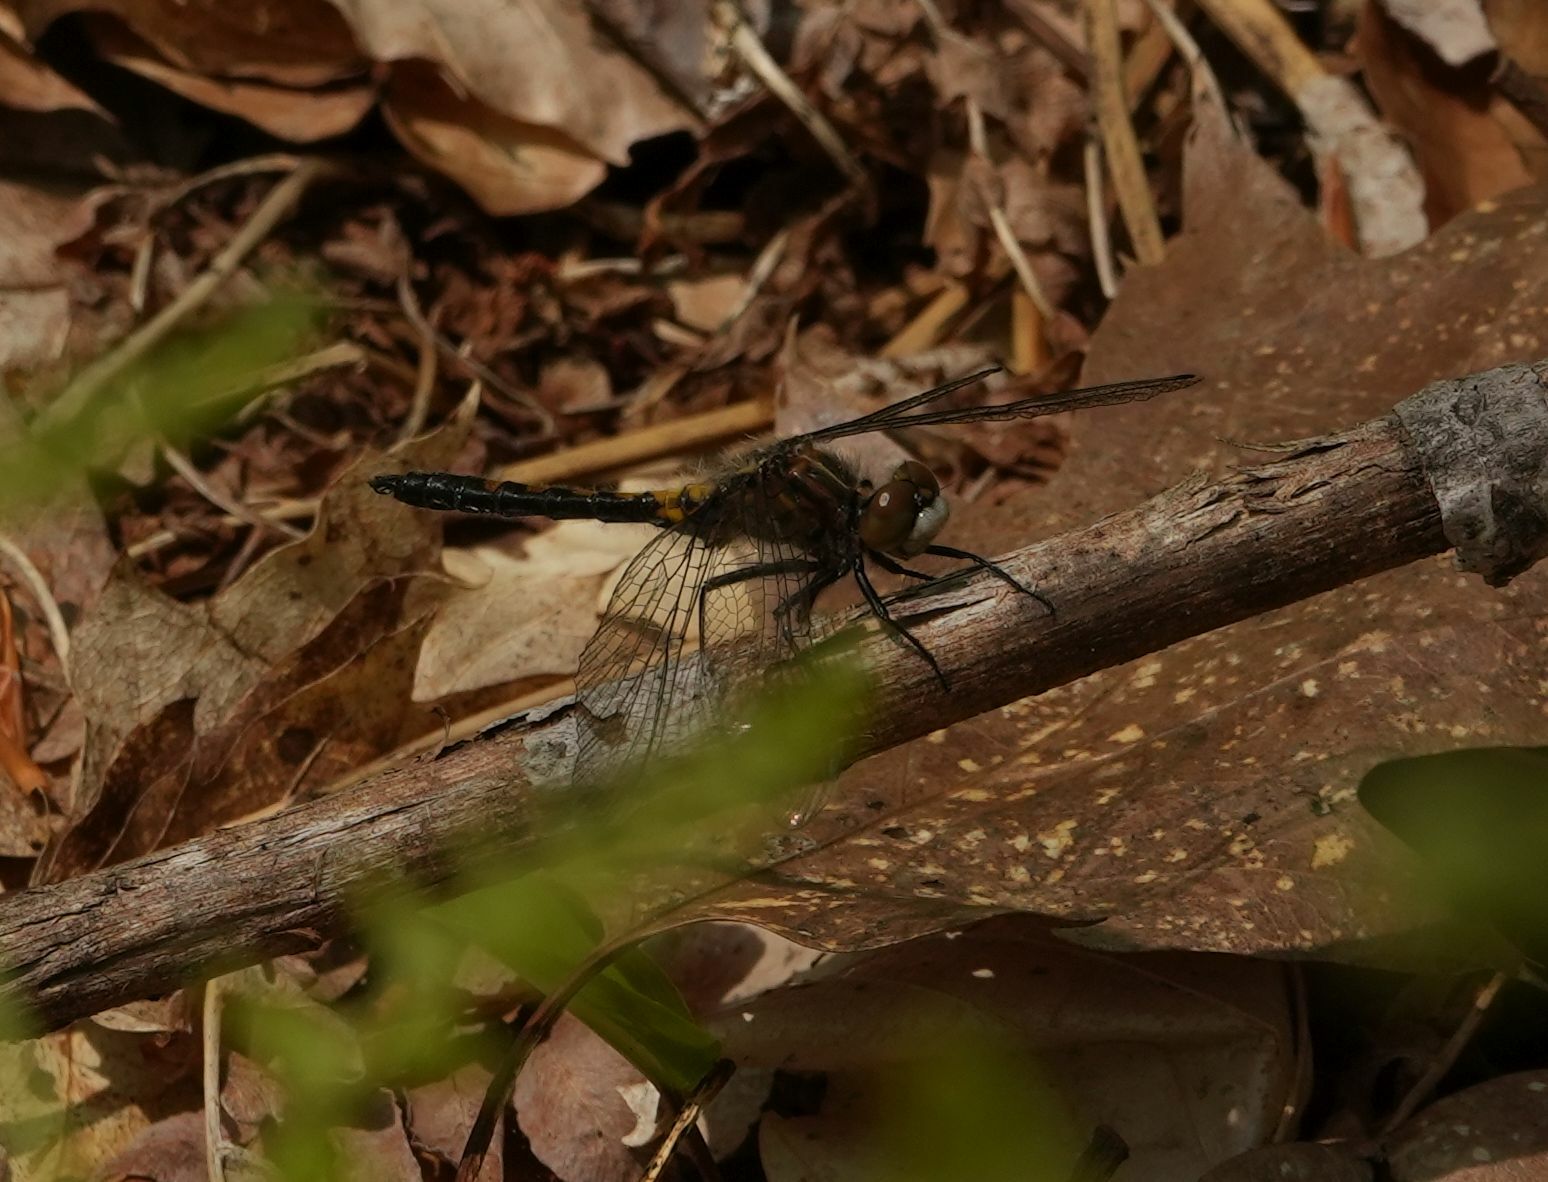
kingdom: Animalia
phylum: Arthropoda
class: Insecta
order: Odonata
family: Libellulidae
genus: Leucorrhinia
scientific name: Leucorrhinia intacta
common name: Dot-tailed whiteface
